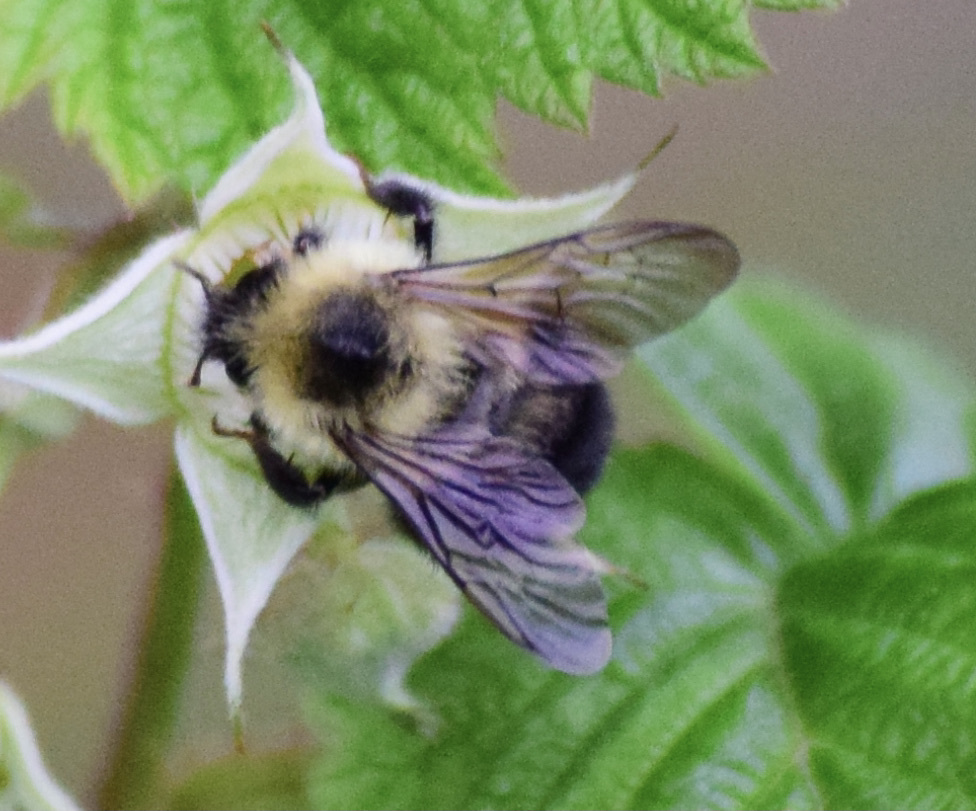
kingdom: Animalia
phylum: Arthropoda
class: Insecta
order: Hymenoptera
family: Apidae
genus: Bombus
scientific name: Bombus bimaculatus
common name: Two-spotted bumble bee
